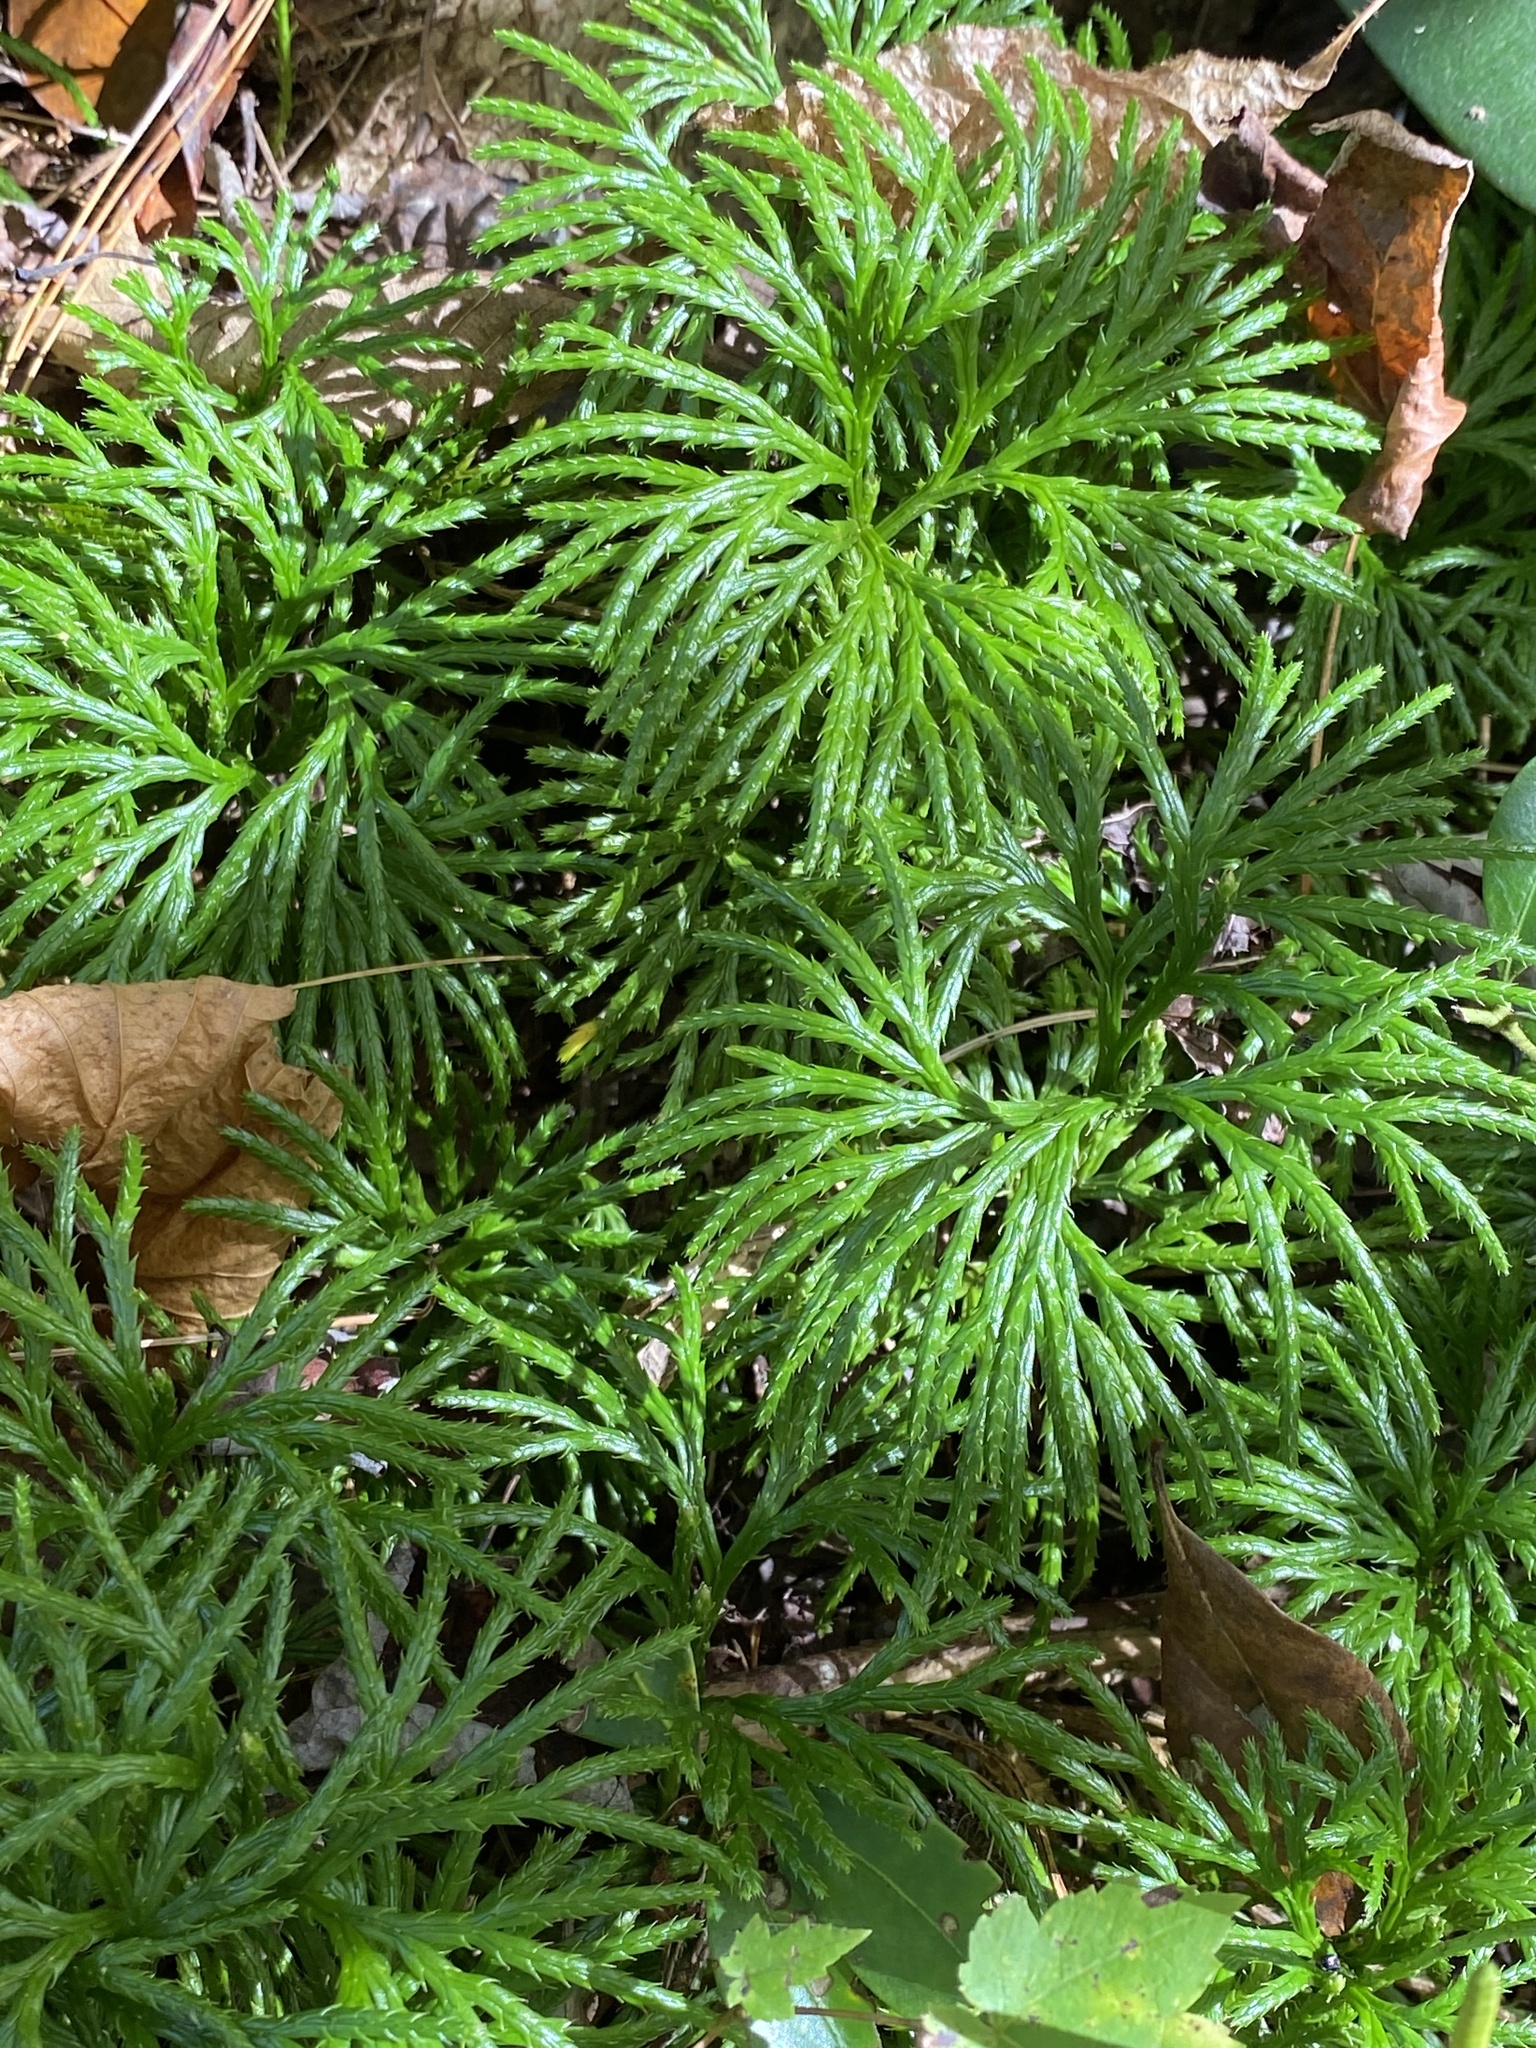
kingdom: Plantae
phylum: Tracheophyta
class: Lycopodiopsida
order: Lycopodiales
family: Lycopodiaceae
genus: Diphasiastrum
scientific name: Diphasiastrum digitatum
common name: Southern running-pine
